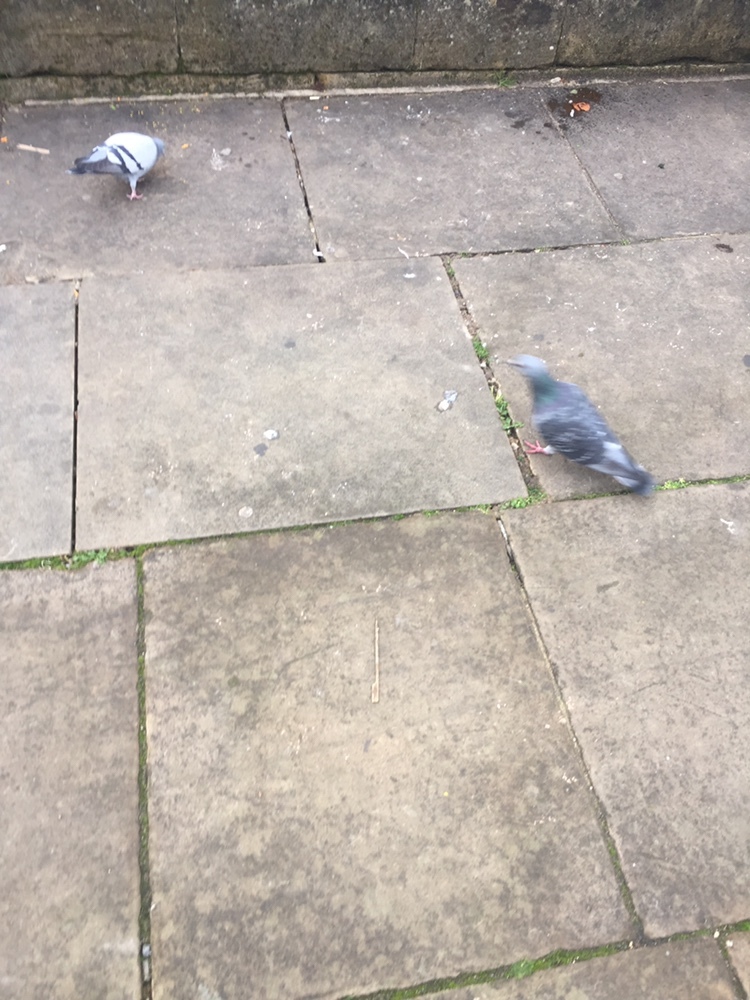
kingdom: Animalia
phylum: Chordata
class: Aves
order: Columbiformes
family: Columbidae
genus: Columba
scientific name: Columba livia
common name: Rock pigeon
